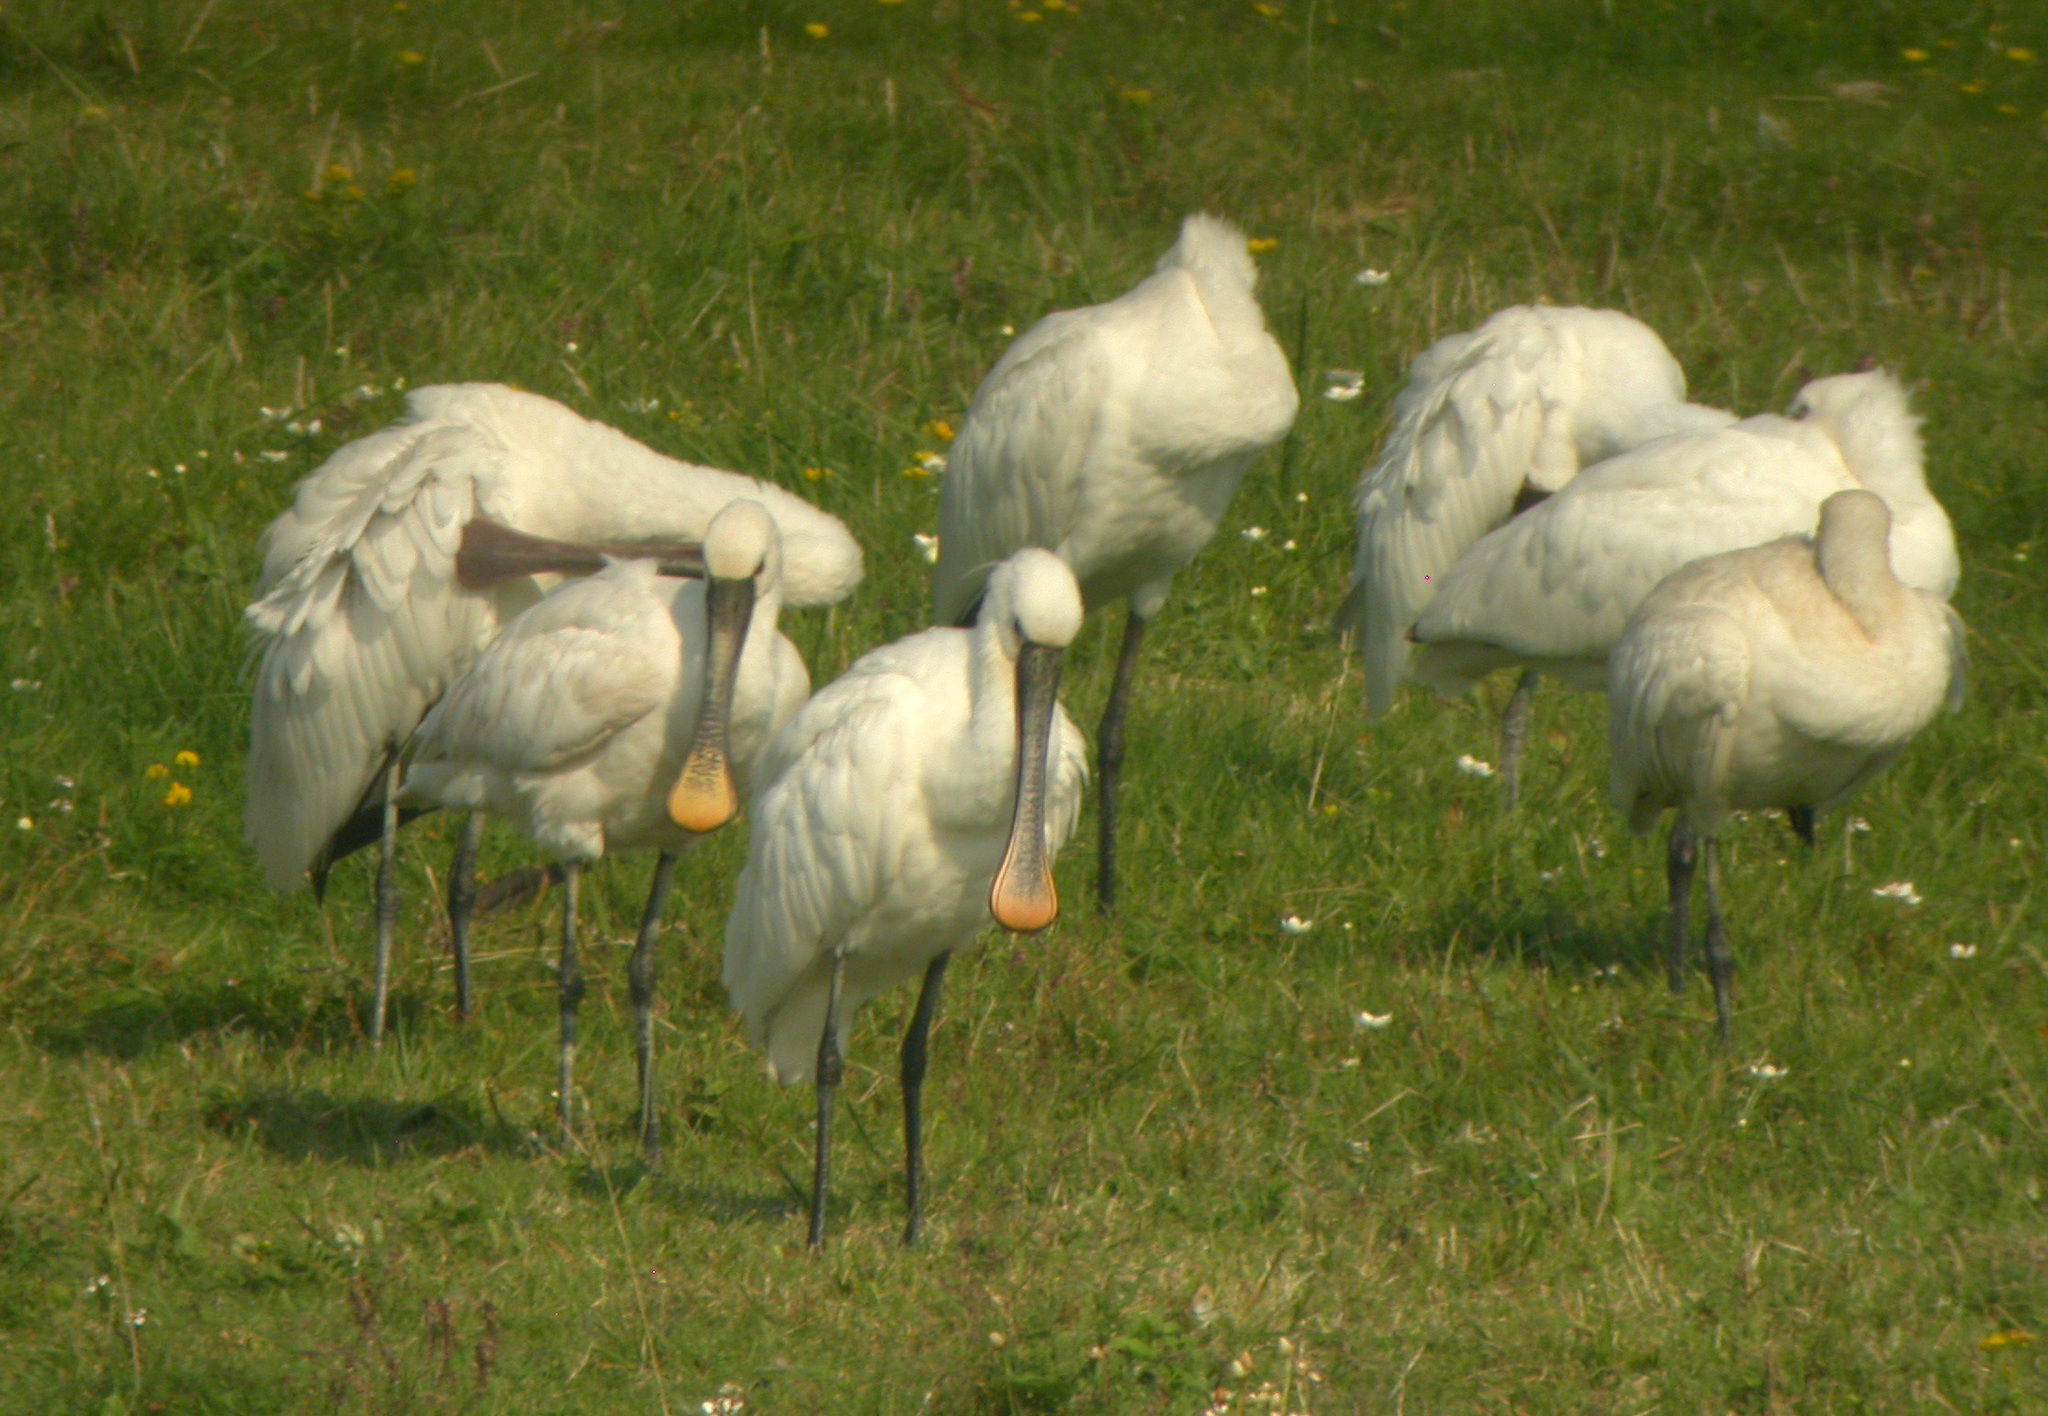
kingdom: Animalia
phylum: Chordata
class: Aves
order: Pelecaniformes
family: Threskiornithidae
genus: Platalea
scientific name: Platalea leucorodia
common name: Eurasian spoonbill
